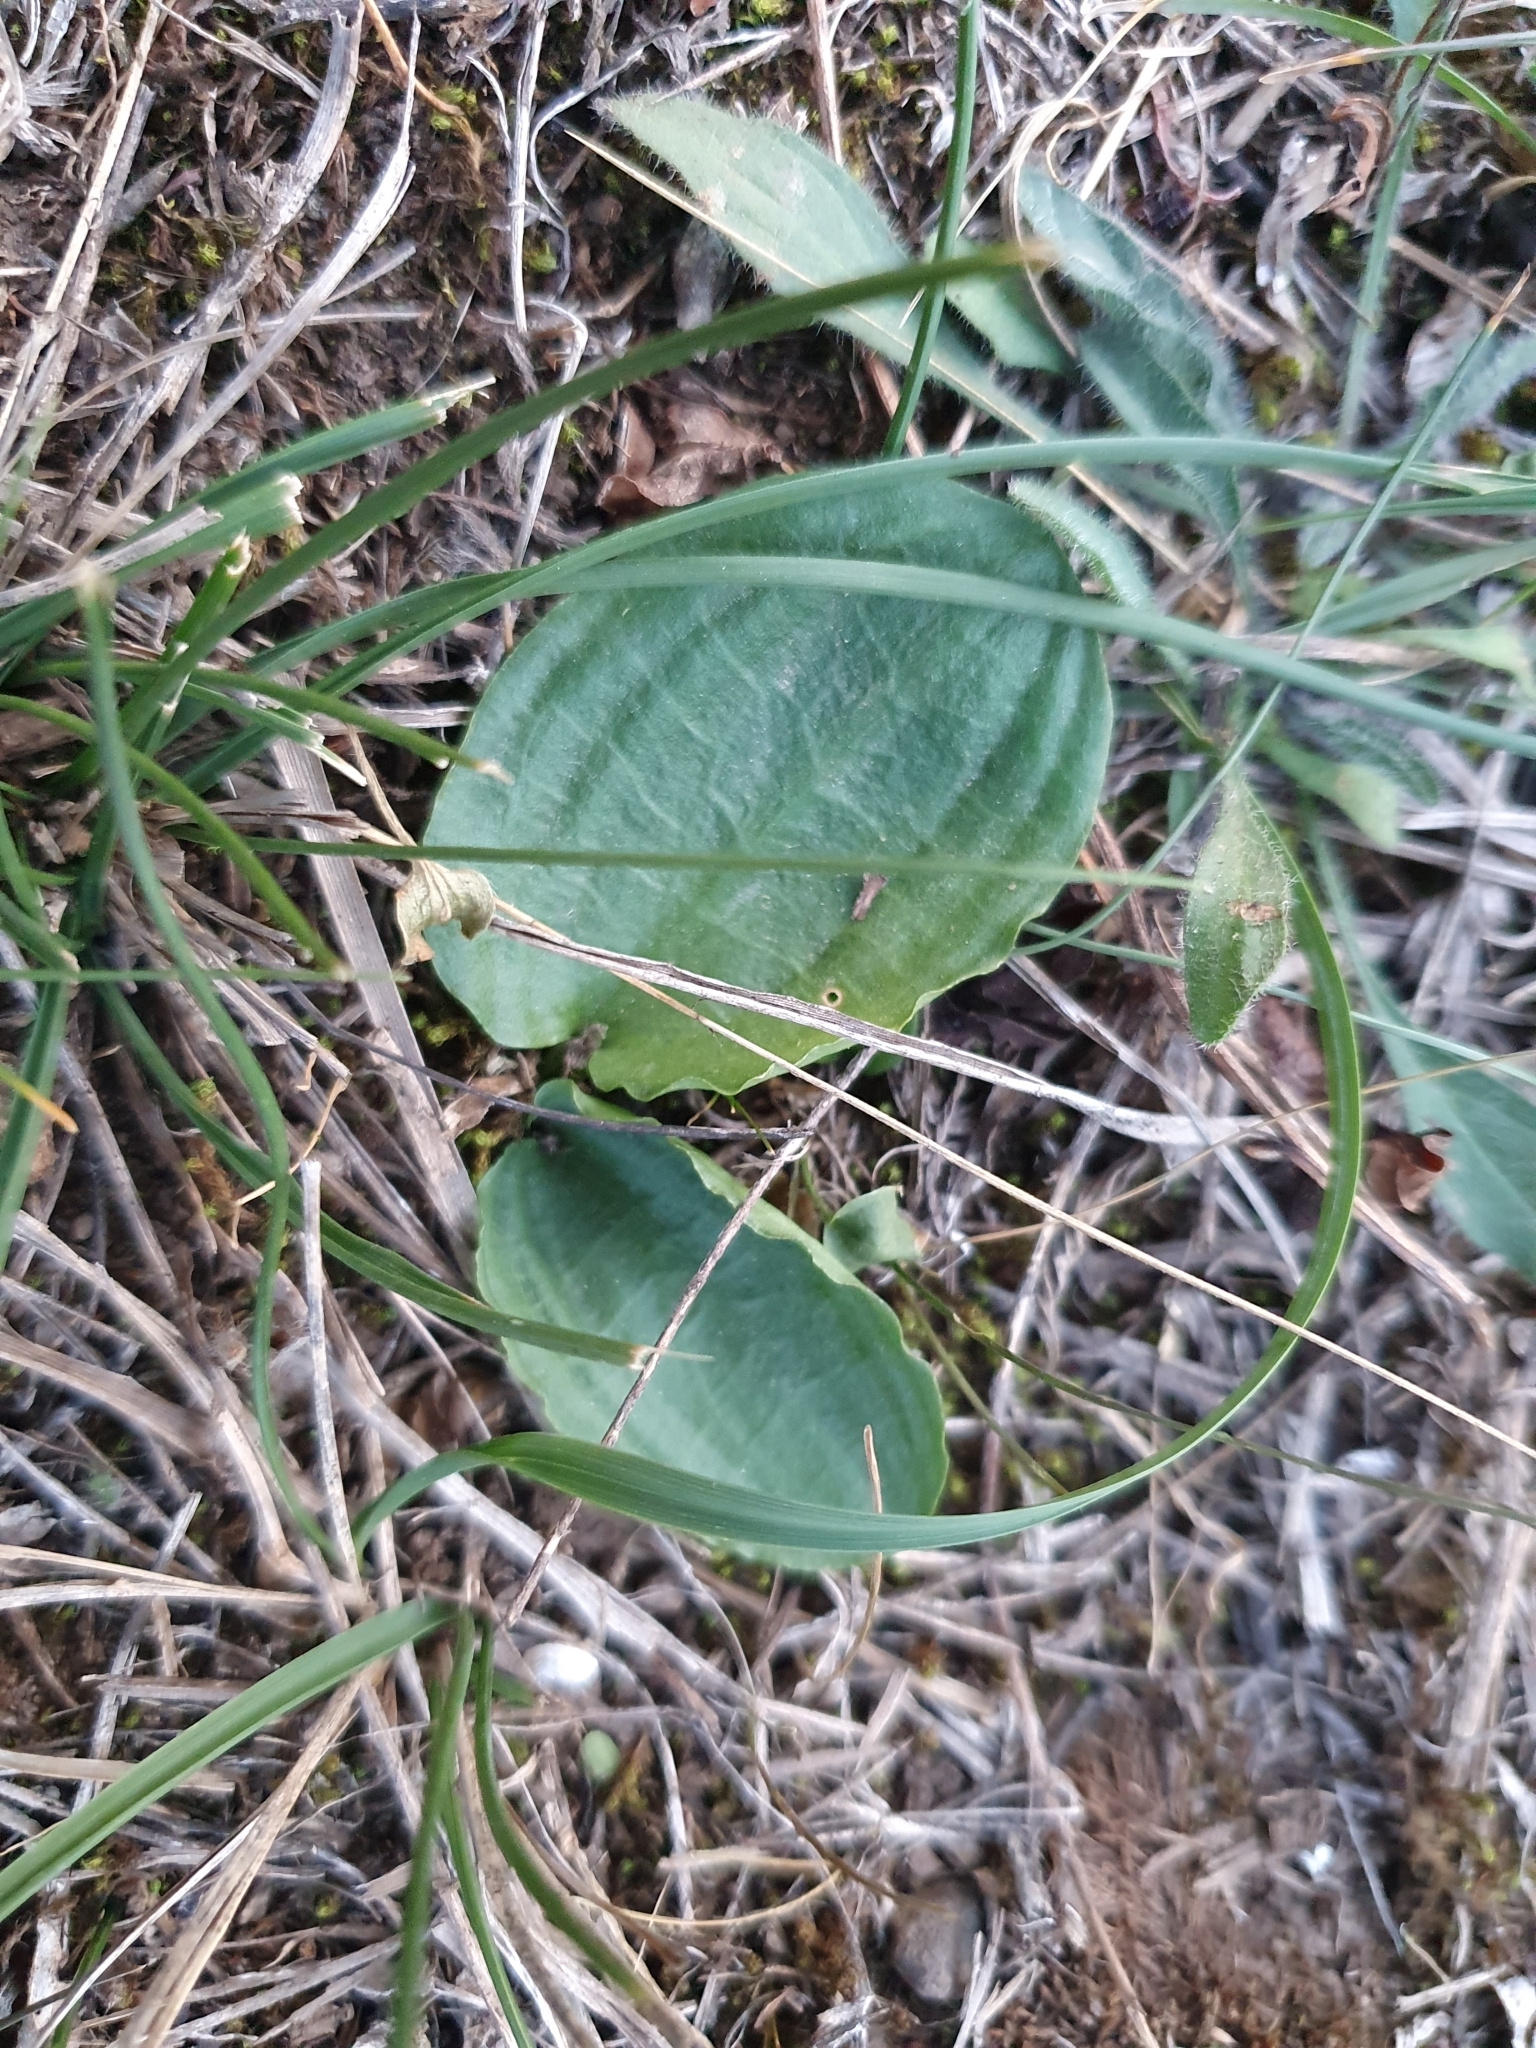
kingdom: Plantae
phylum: Tracheophyta
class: Liliopsida
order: Alismatales
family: Araceae
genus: Ambrosina
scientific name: Ambrosina bassii
